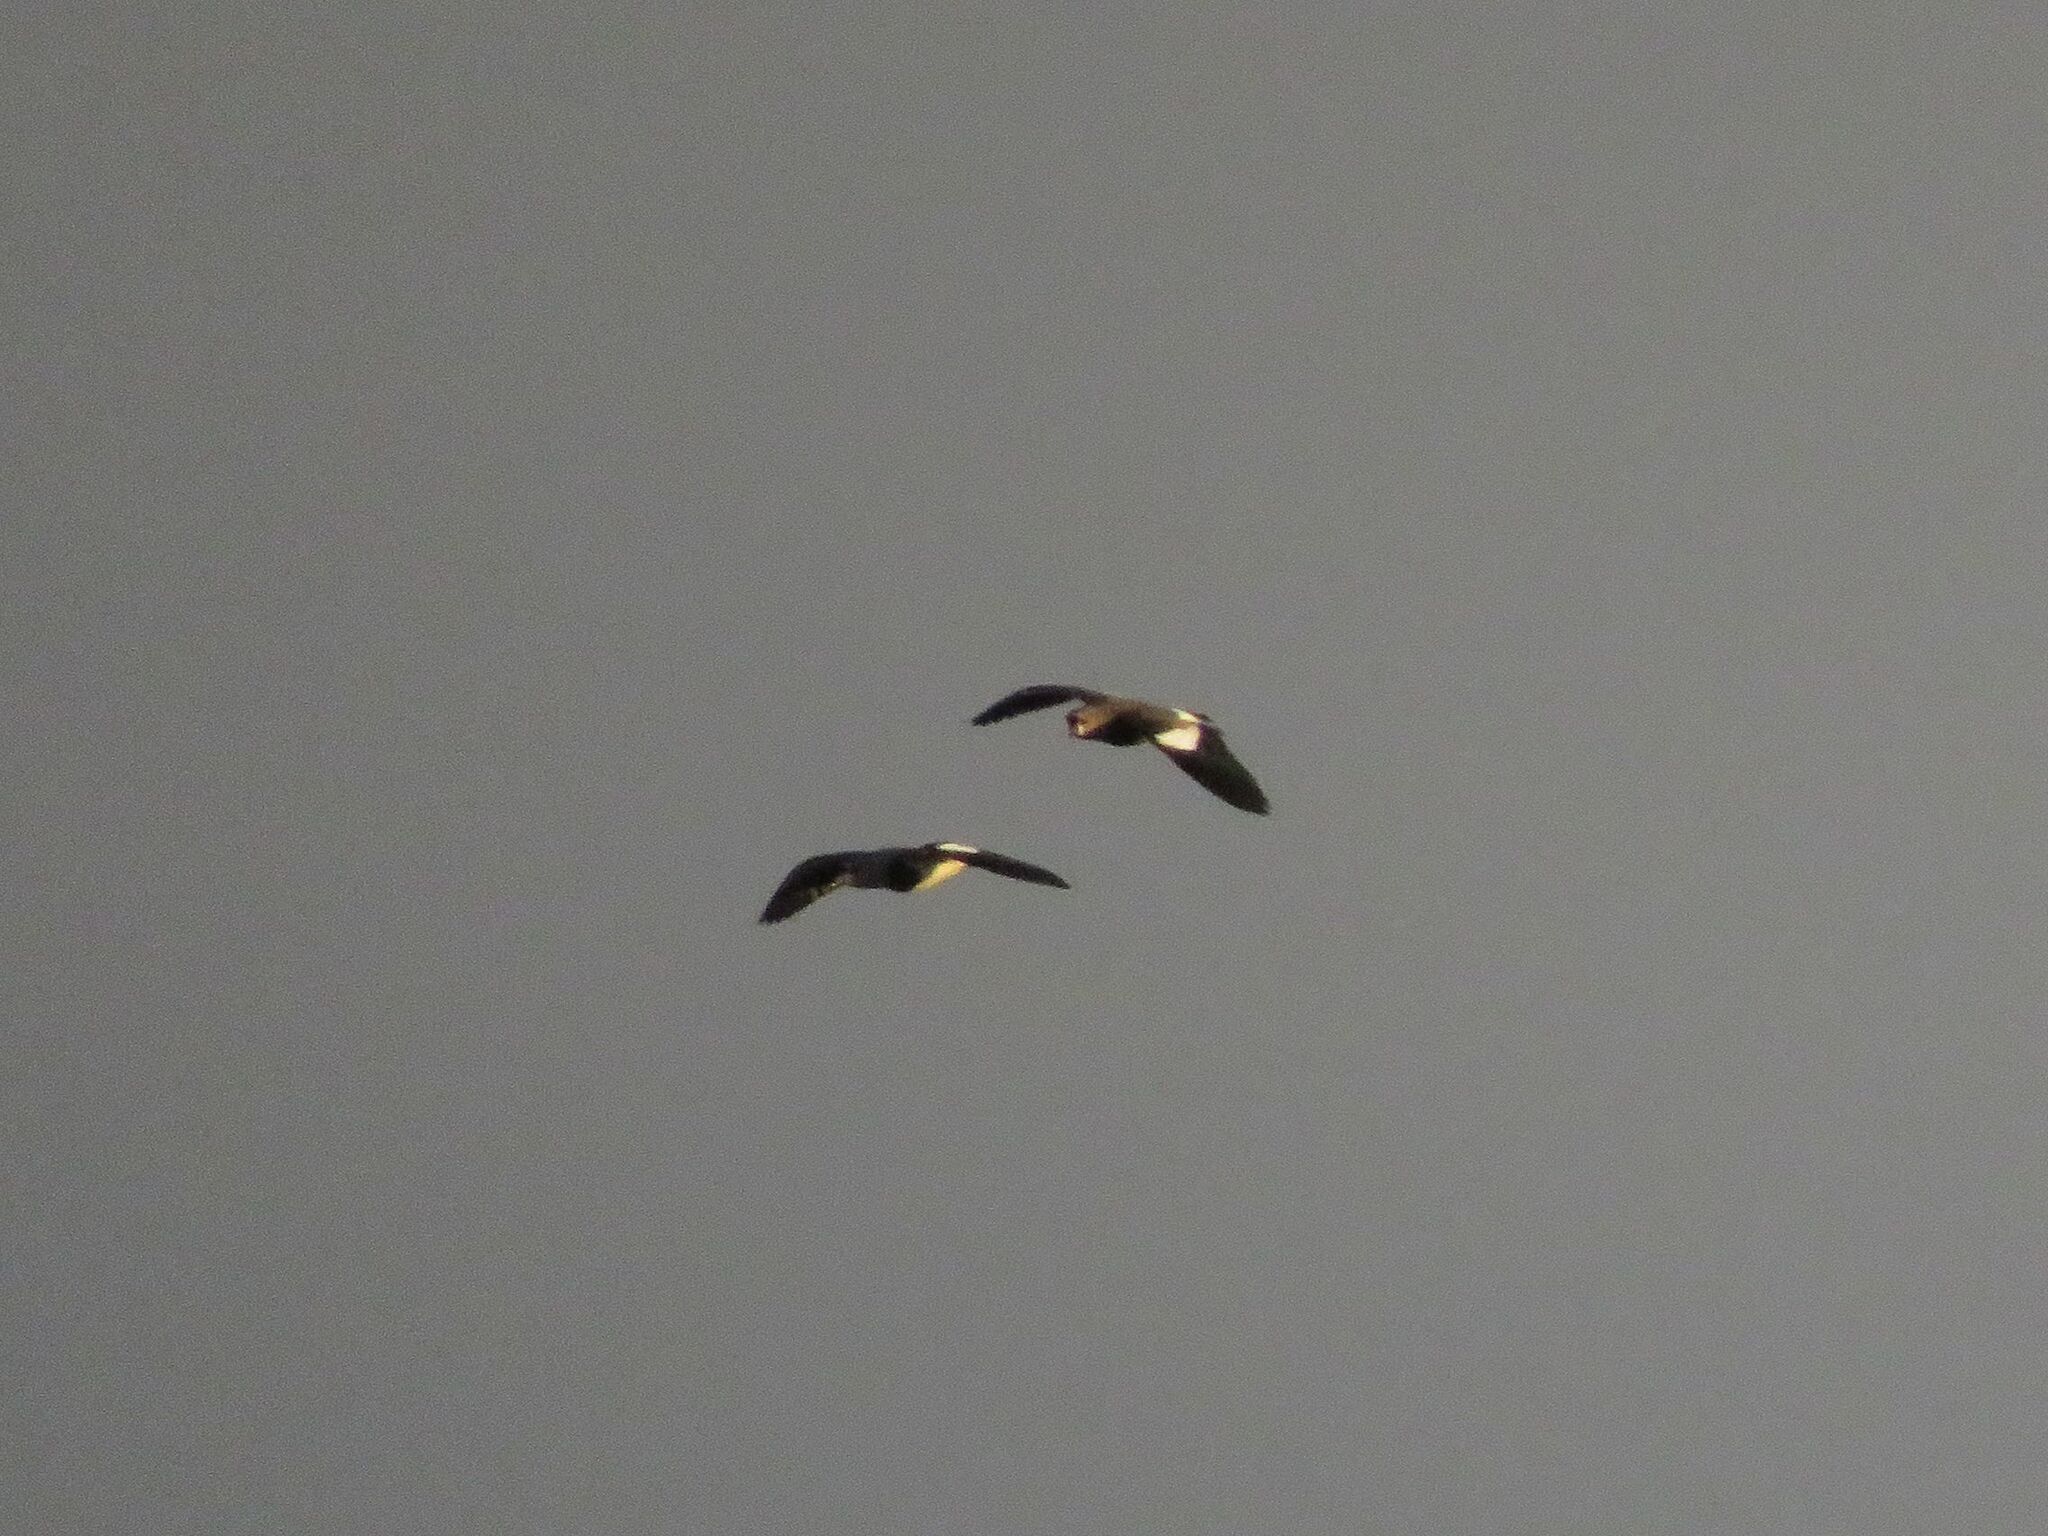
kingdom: Animalia
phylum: Chordata
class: Aves
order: Charadriiformes
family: Charadriidae
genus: Vanellus
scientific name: Vanellus chilensis
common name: Southern lapwing
